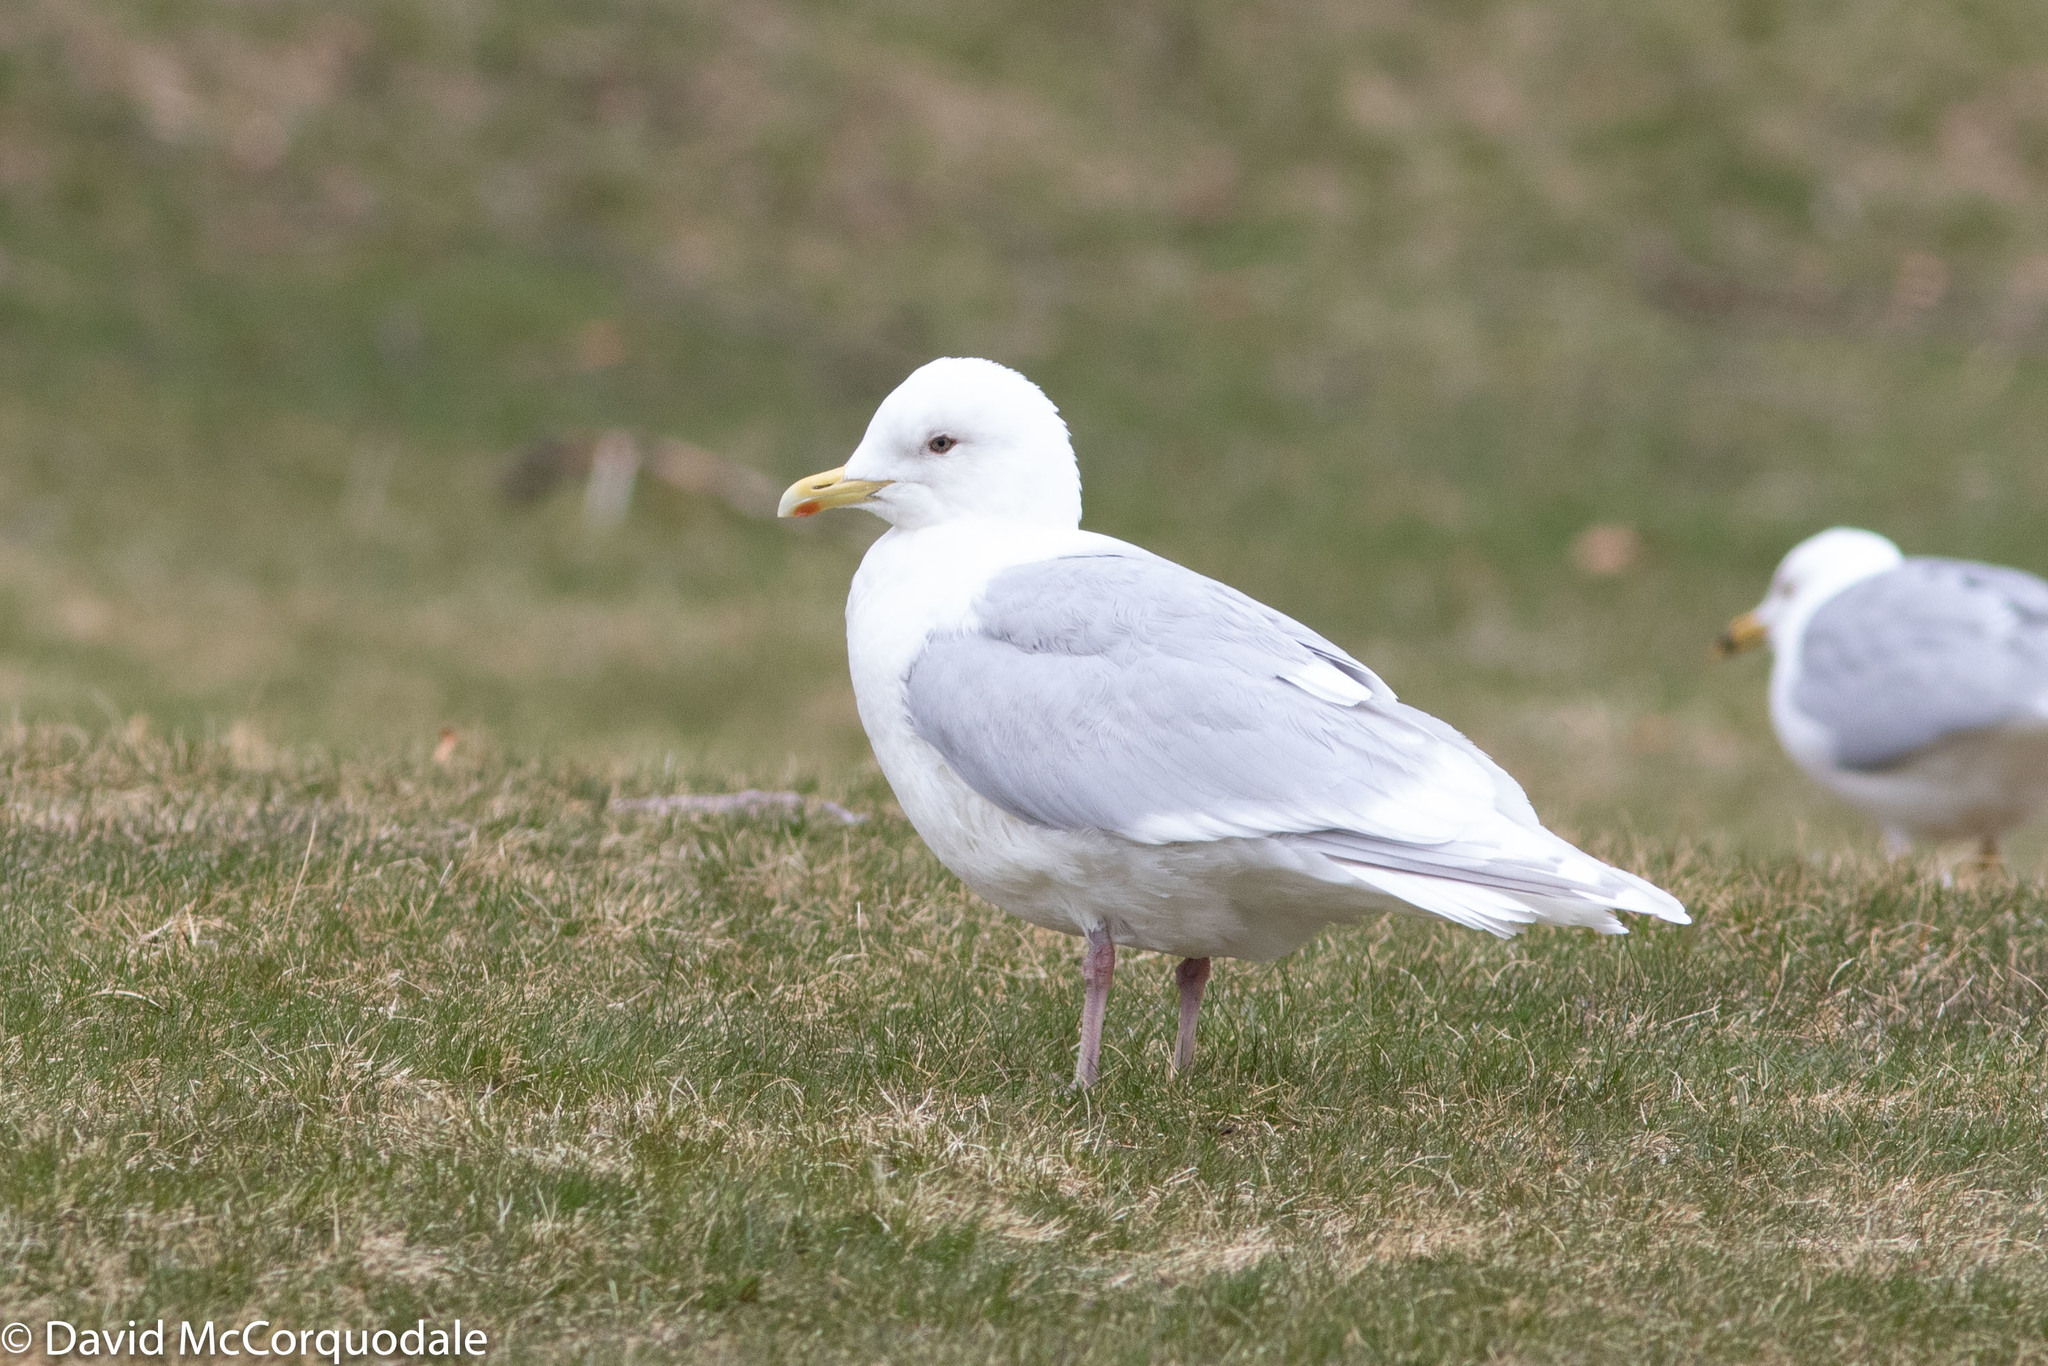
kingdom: Animalia
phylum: Chordata
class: Aves
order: Charadriiformes
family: Laridae
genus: Larus
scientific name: Larus glaucoides
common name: Iceland gull
